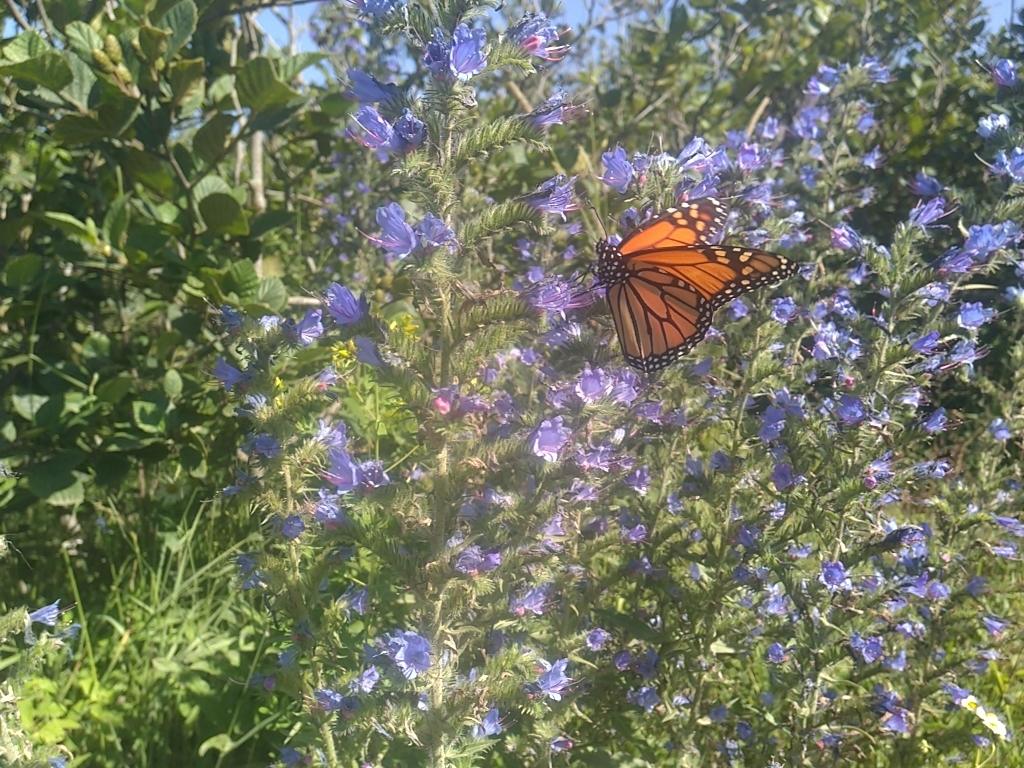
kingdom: Animalia
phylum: Arthropoda
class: Insecta
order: Lepidoptera
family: Nymphalidae
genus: Danaus
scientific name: Danaus plexippus
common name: Monarch
